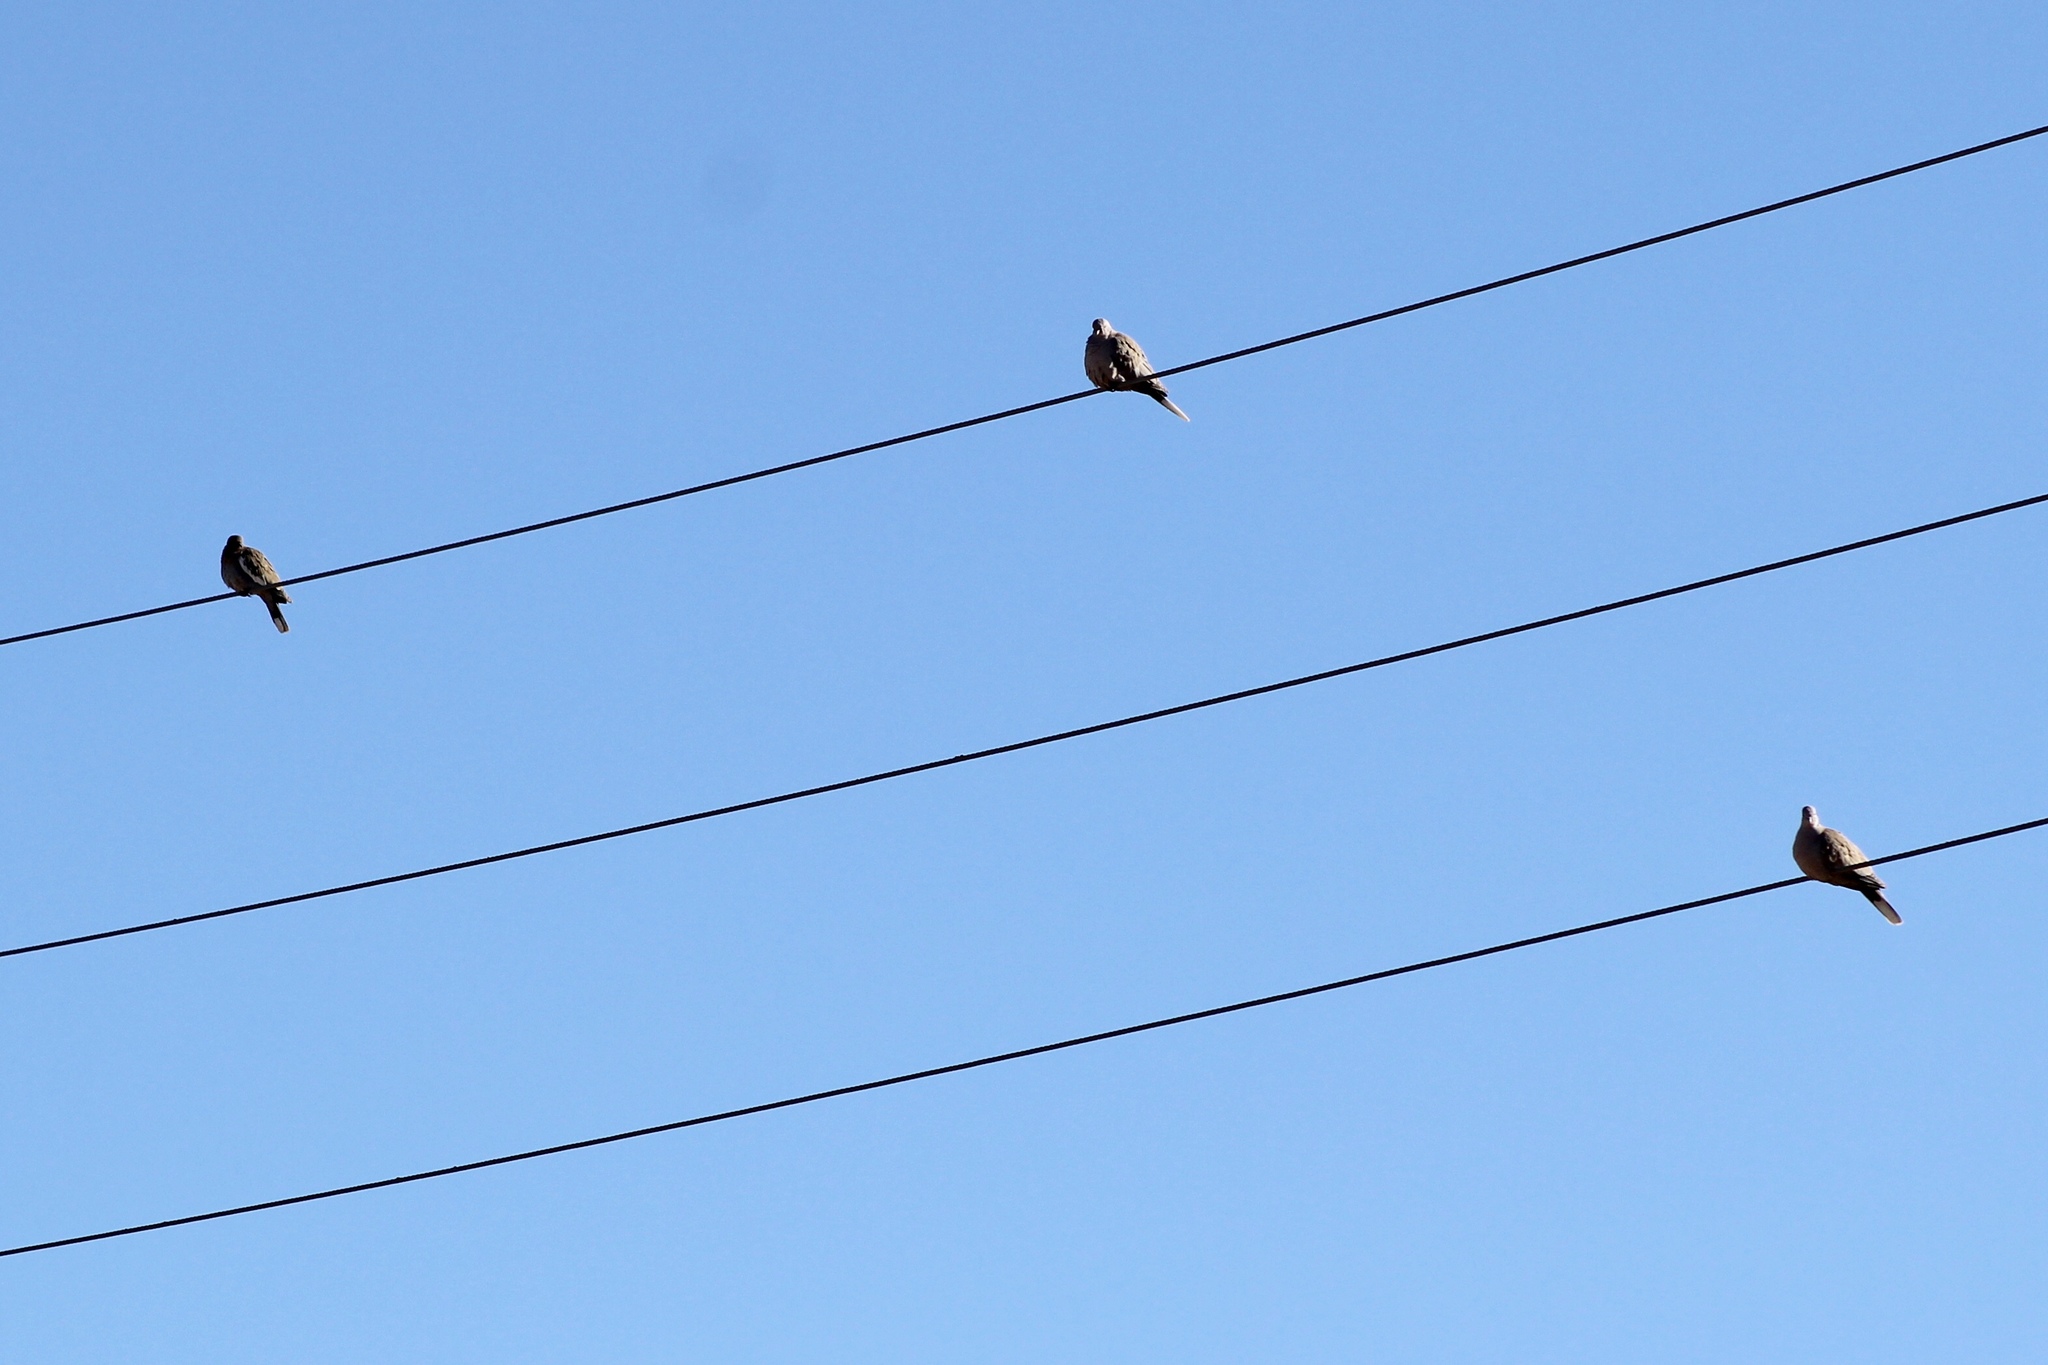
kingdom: Animalia
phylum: Chordata
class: Aves
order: Columbiformes
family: Columbidae
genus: Zenaida
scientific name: Zenaida macroura
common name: Mourning dove
